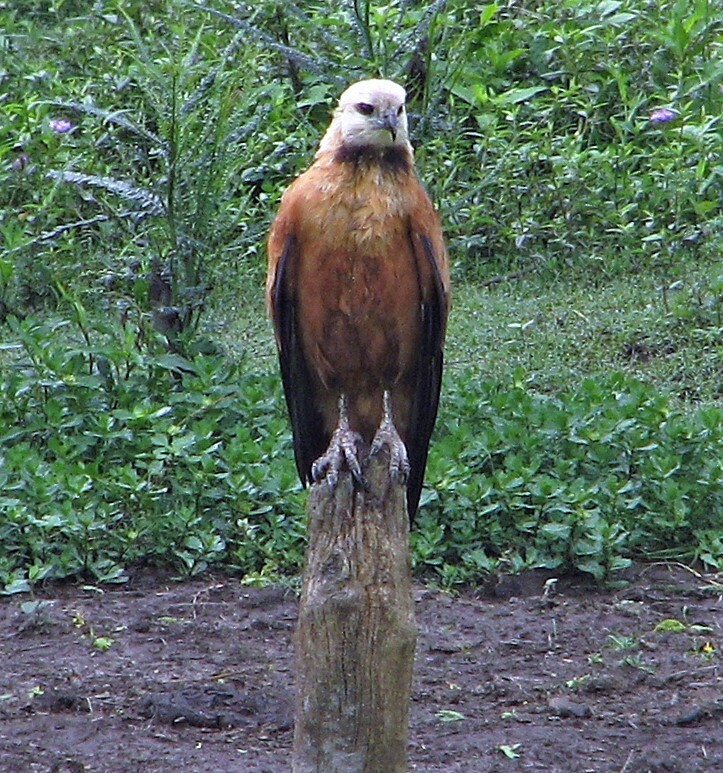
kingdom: Animalia
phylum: Chordata
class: Aves
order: Accipitriformes
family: Accipitridae
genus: Busarellus
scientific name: Busarellus nigricollis
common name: Black-collared hawk
